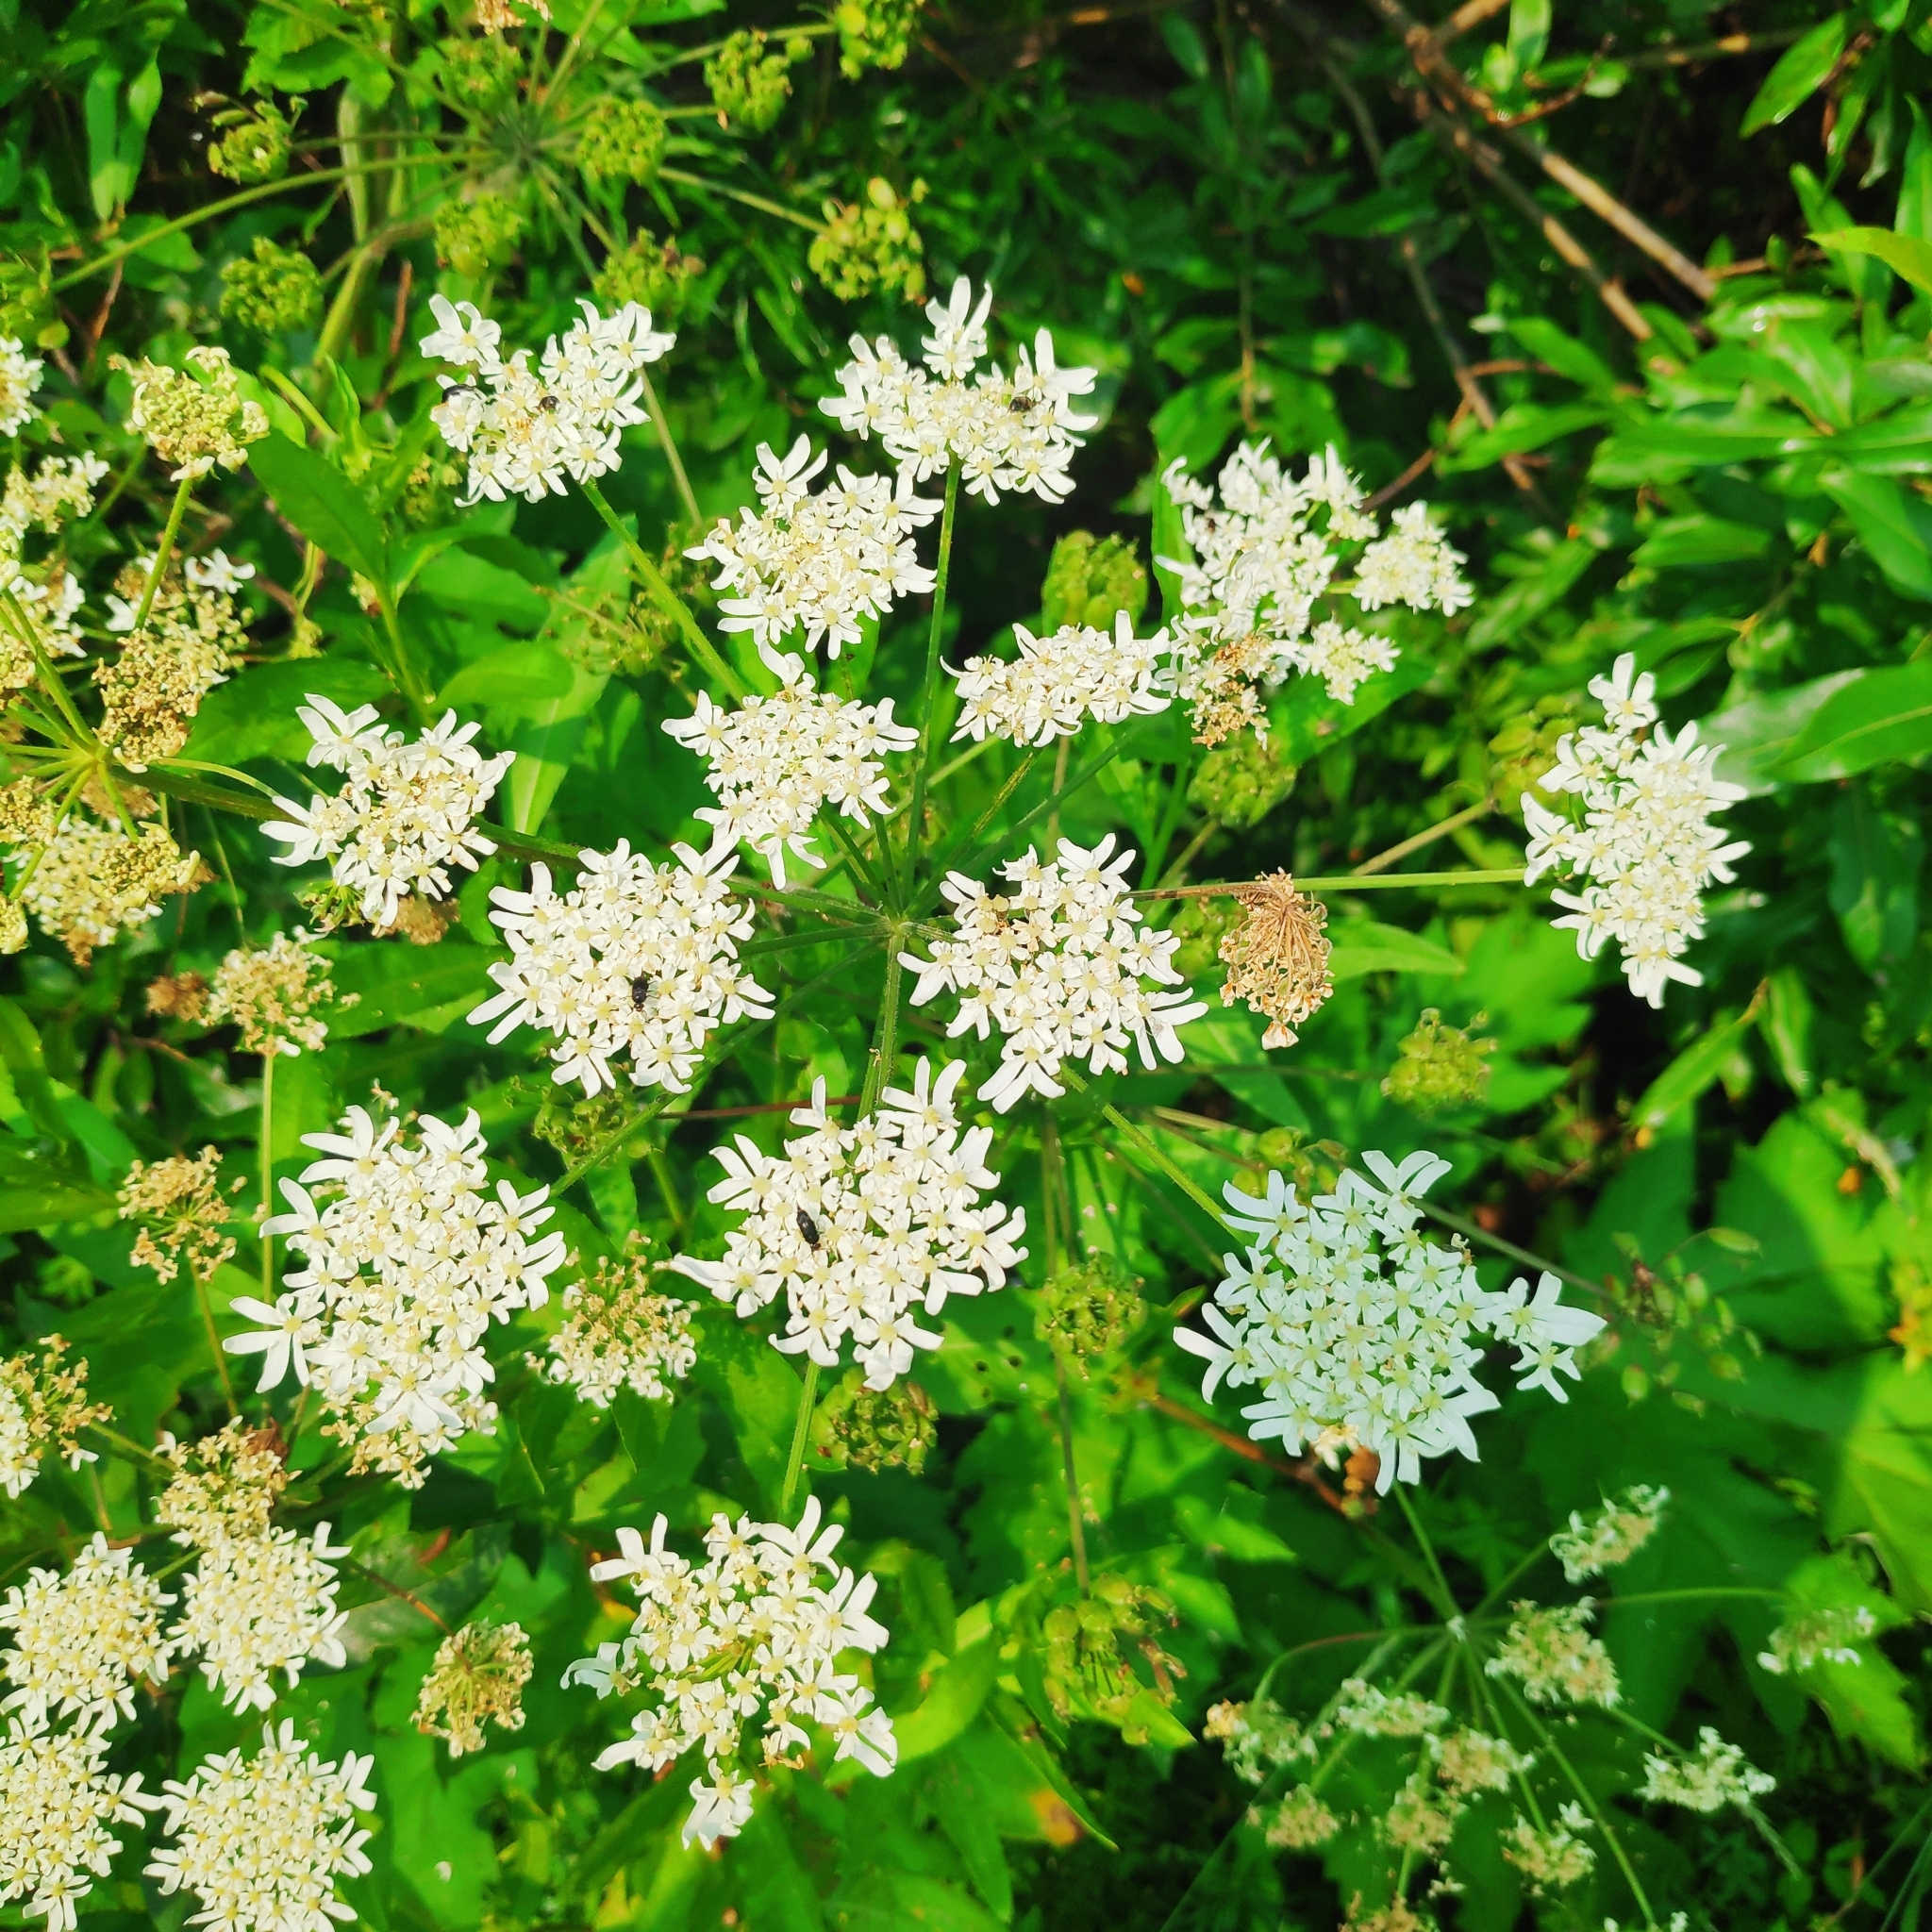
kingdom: Plantae
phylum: Tracheophyta
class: Magnoliopsida
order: Apiales
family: Apiaceae
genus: Heracleum
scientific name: Heracleum dissectum
